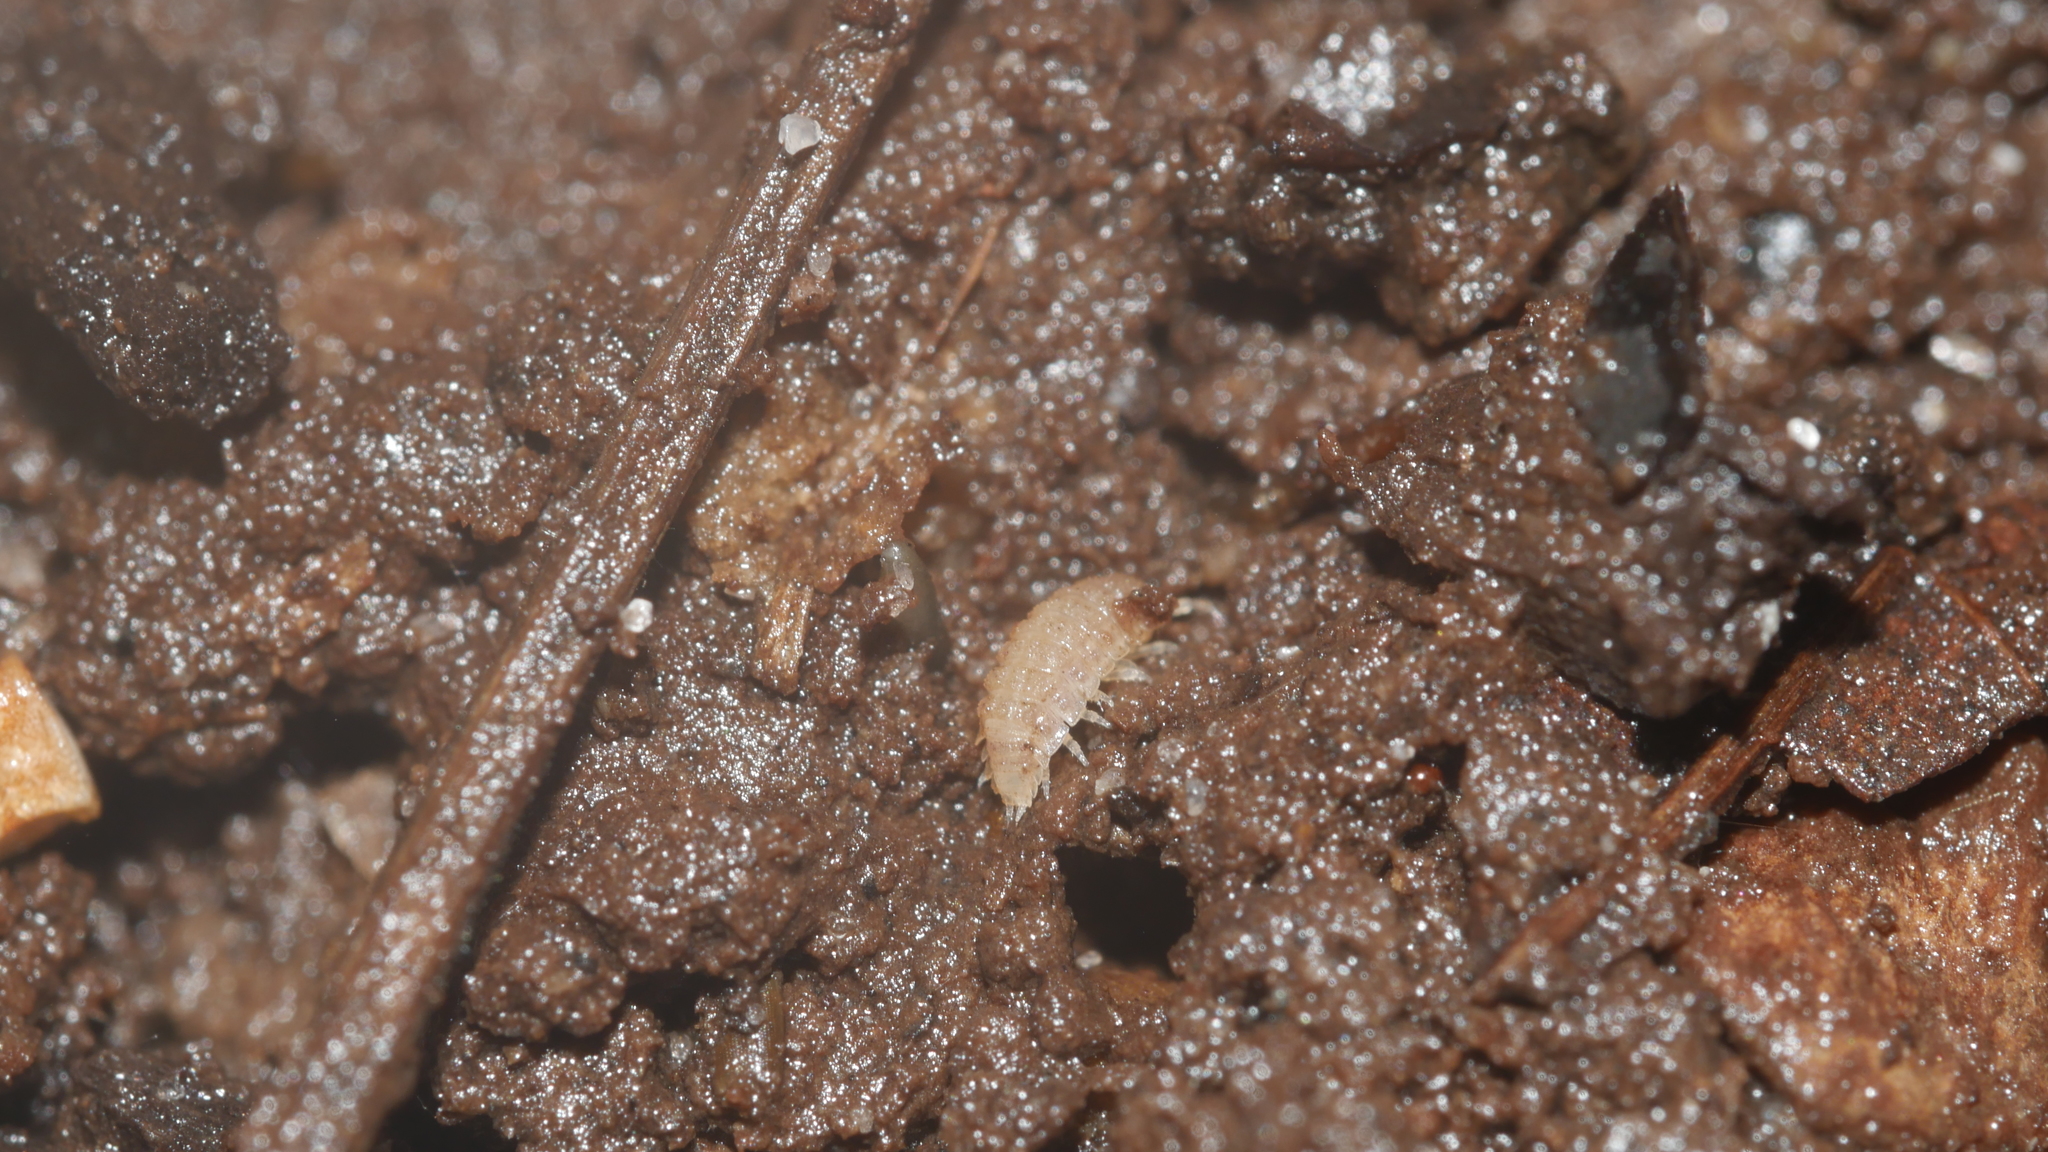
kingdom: Animalia
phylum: Arthropoda
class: Malacostraca
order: Isopoda
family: Trichoniscidae
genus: Haplophthalmus
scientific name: Haplophthalmus danicus
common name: Pillbug
